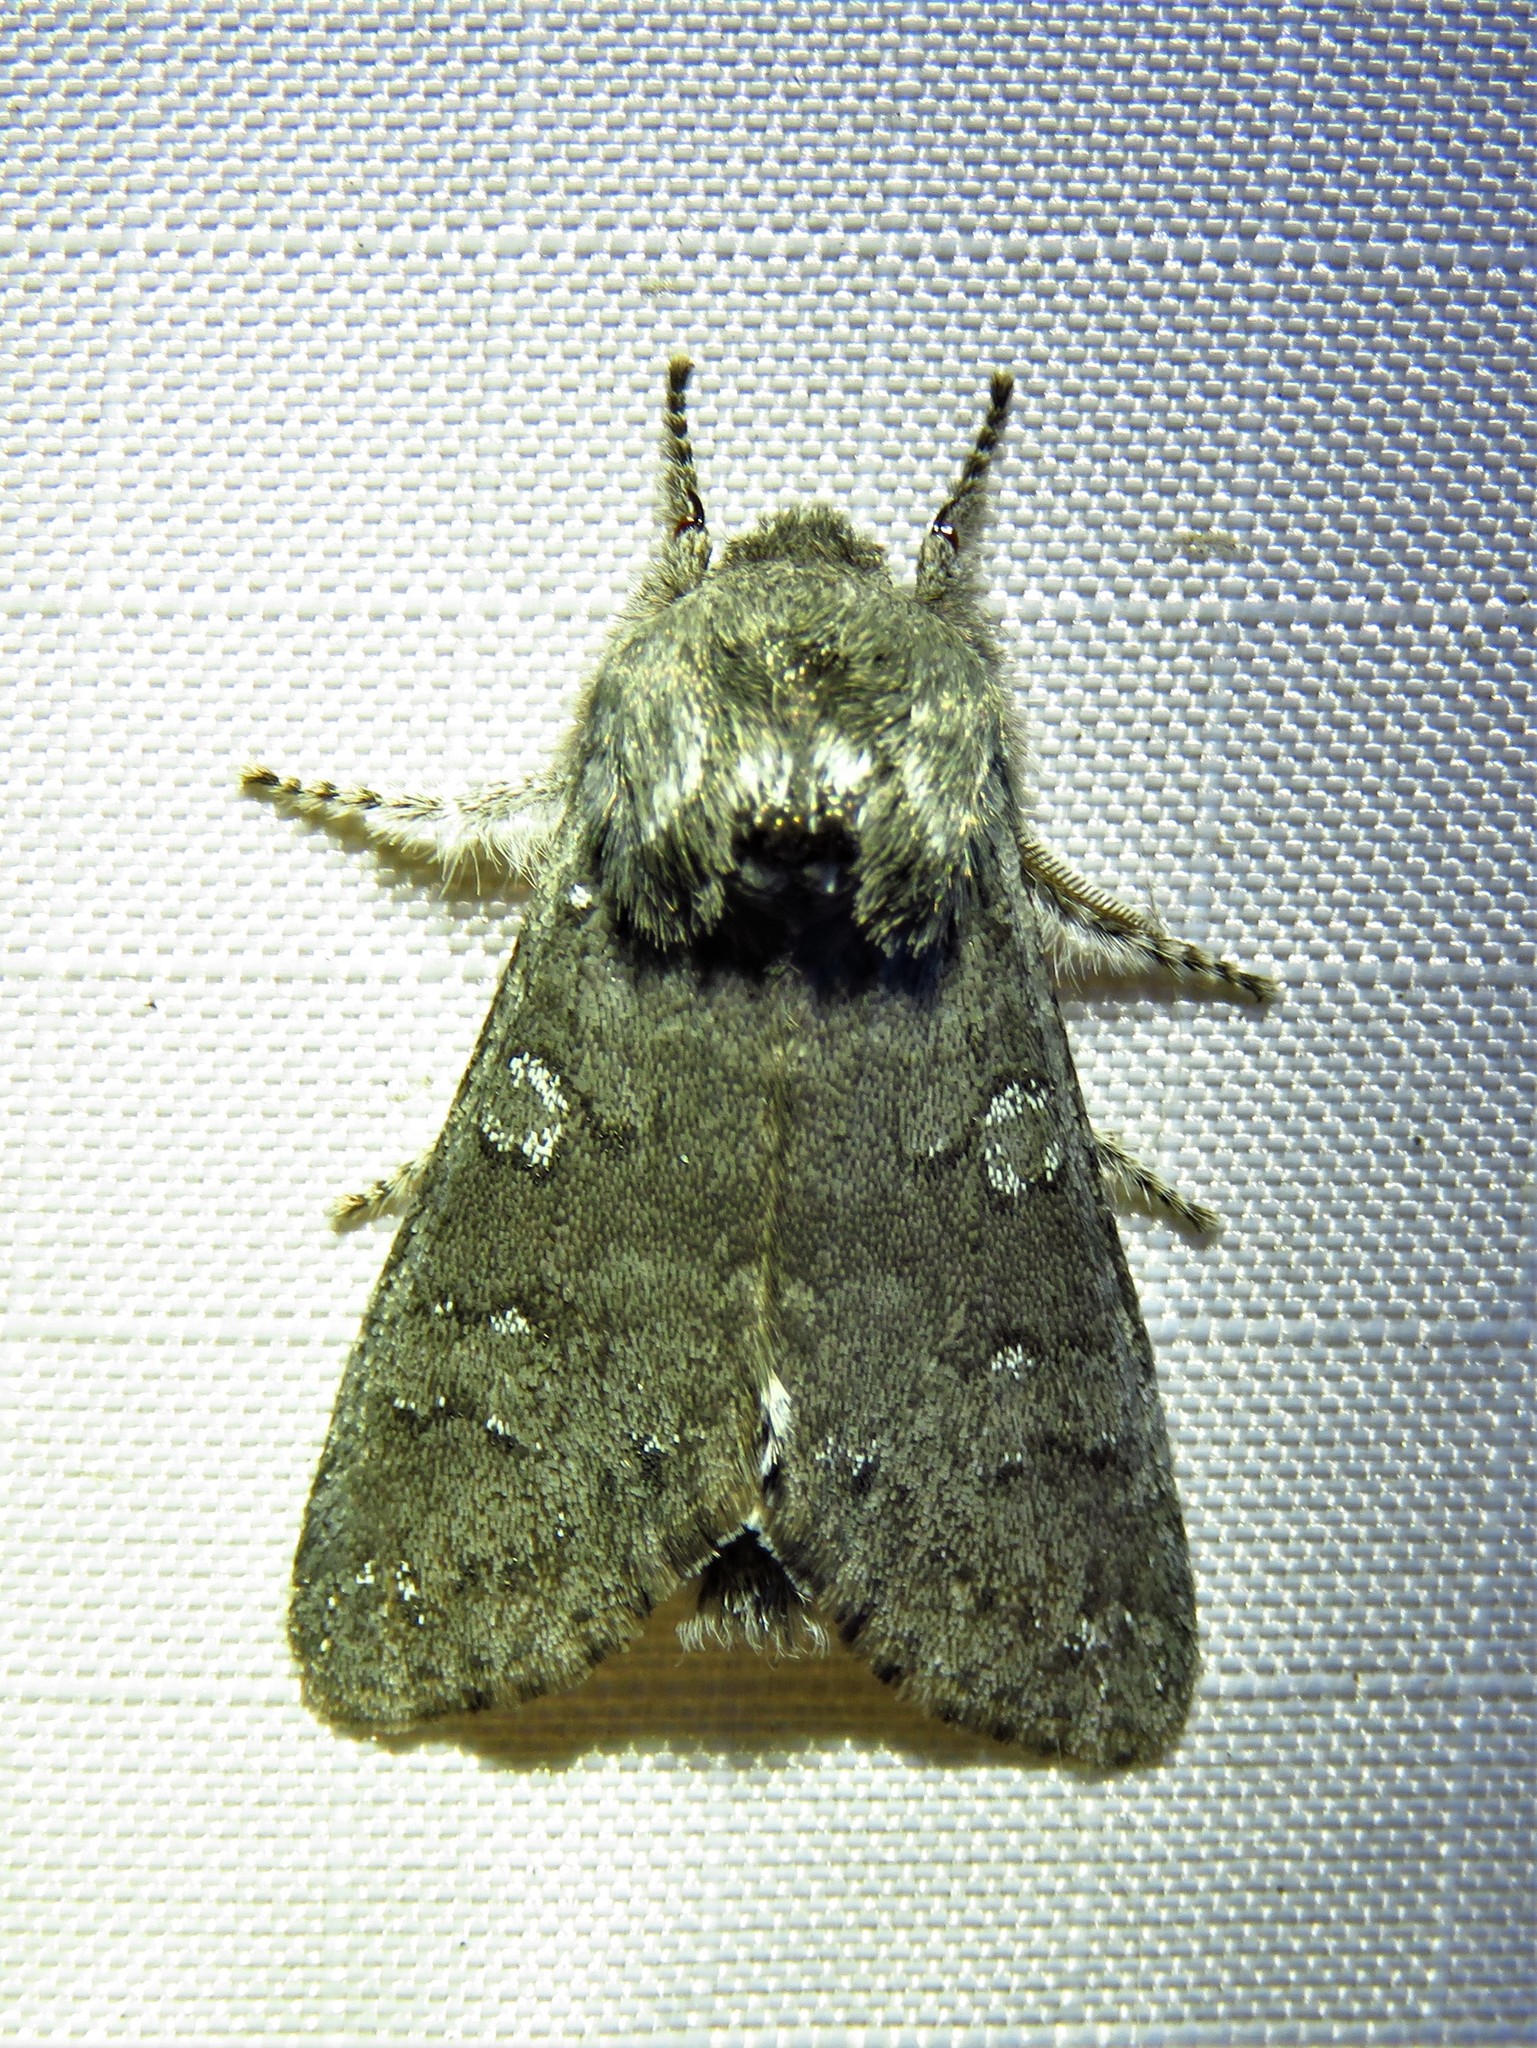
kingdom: Animalia
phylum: Arthropoda
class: Insecta
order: Lepidoptera
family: Noctuidae
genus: Psaphida
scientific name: Psaphida rolandi
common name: Roland's sallow
